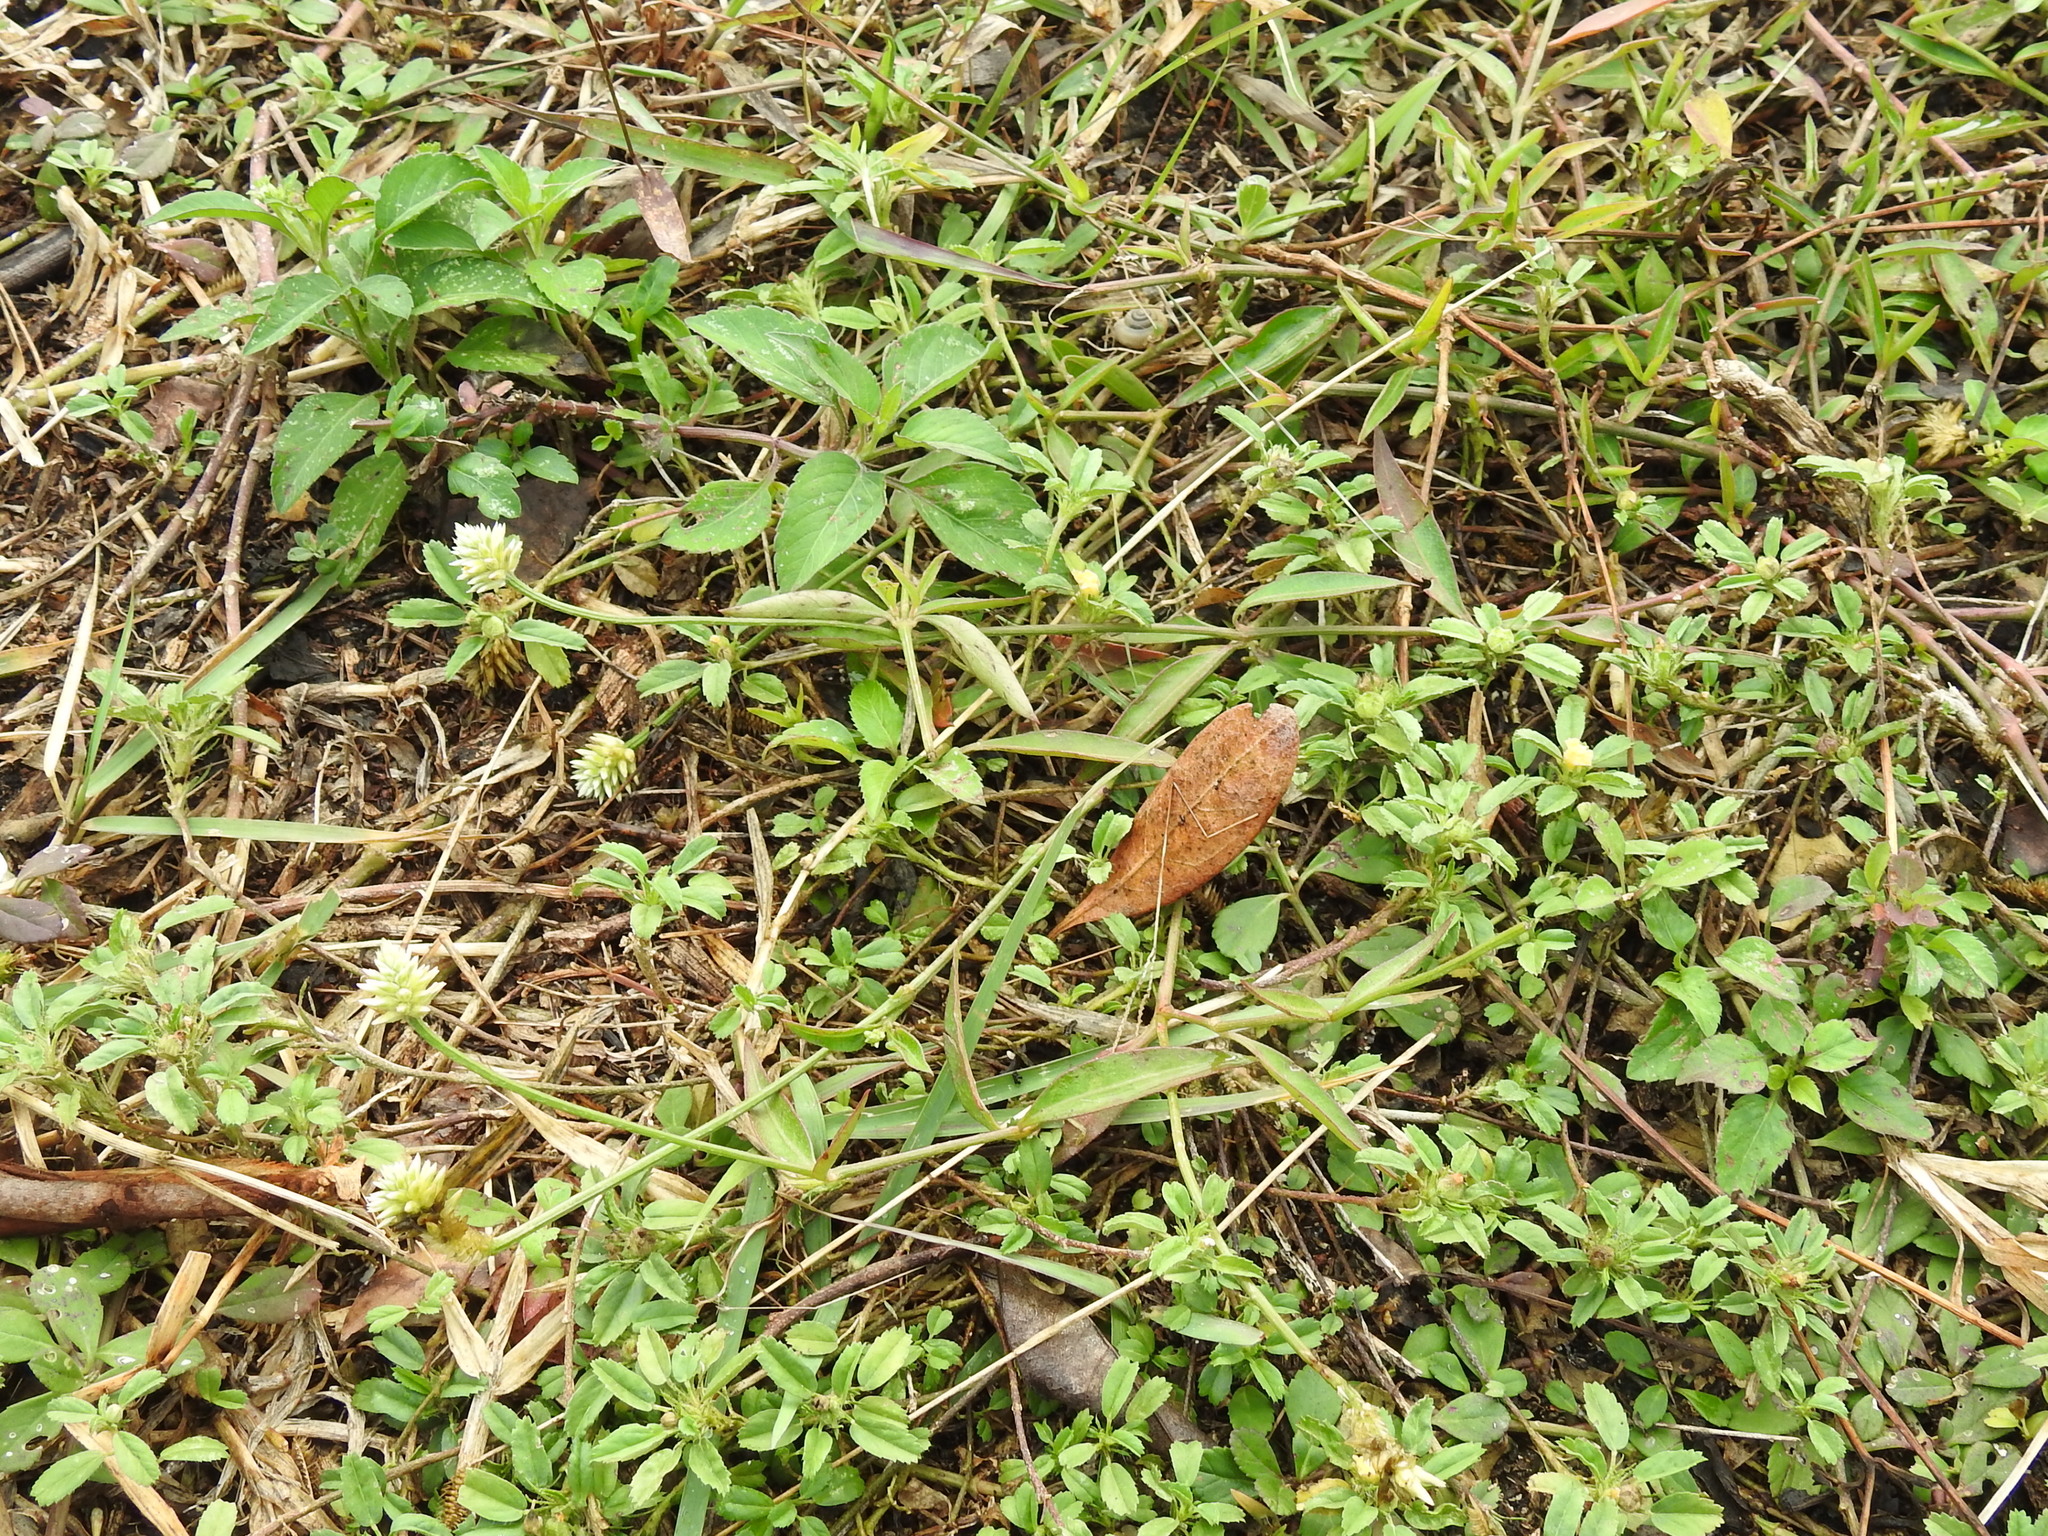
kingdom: Plantae
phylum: Tracheophyta
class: Magnoliopsida
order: Caryophyllales
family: Amaranthaceae
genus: Gomphrena
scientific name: Gomphrena serrata
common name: Arrasa con todo
